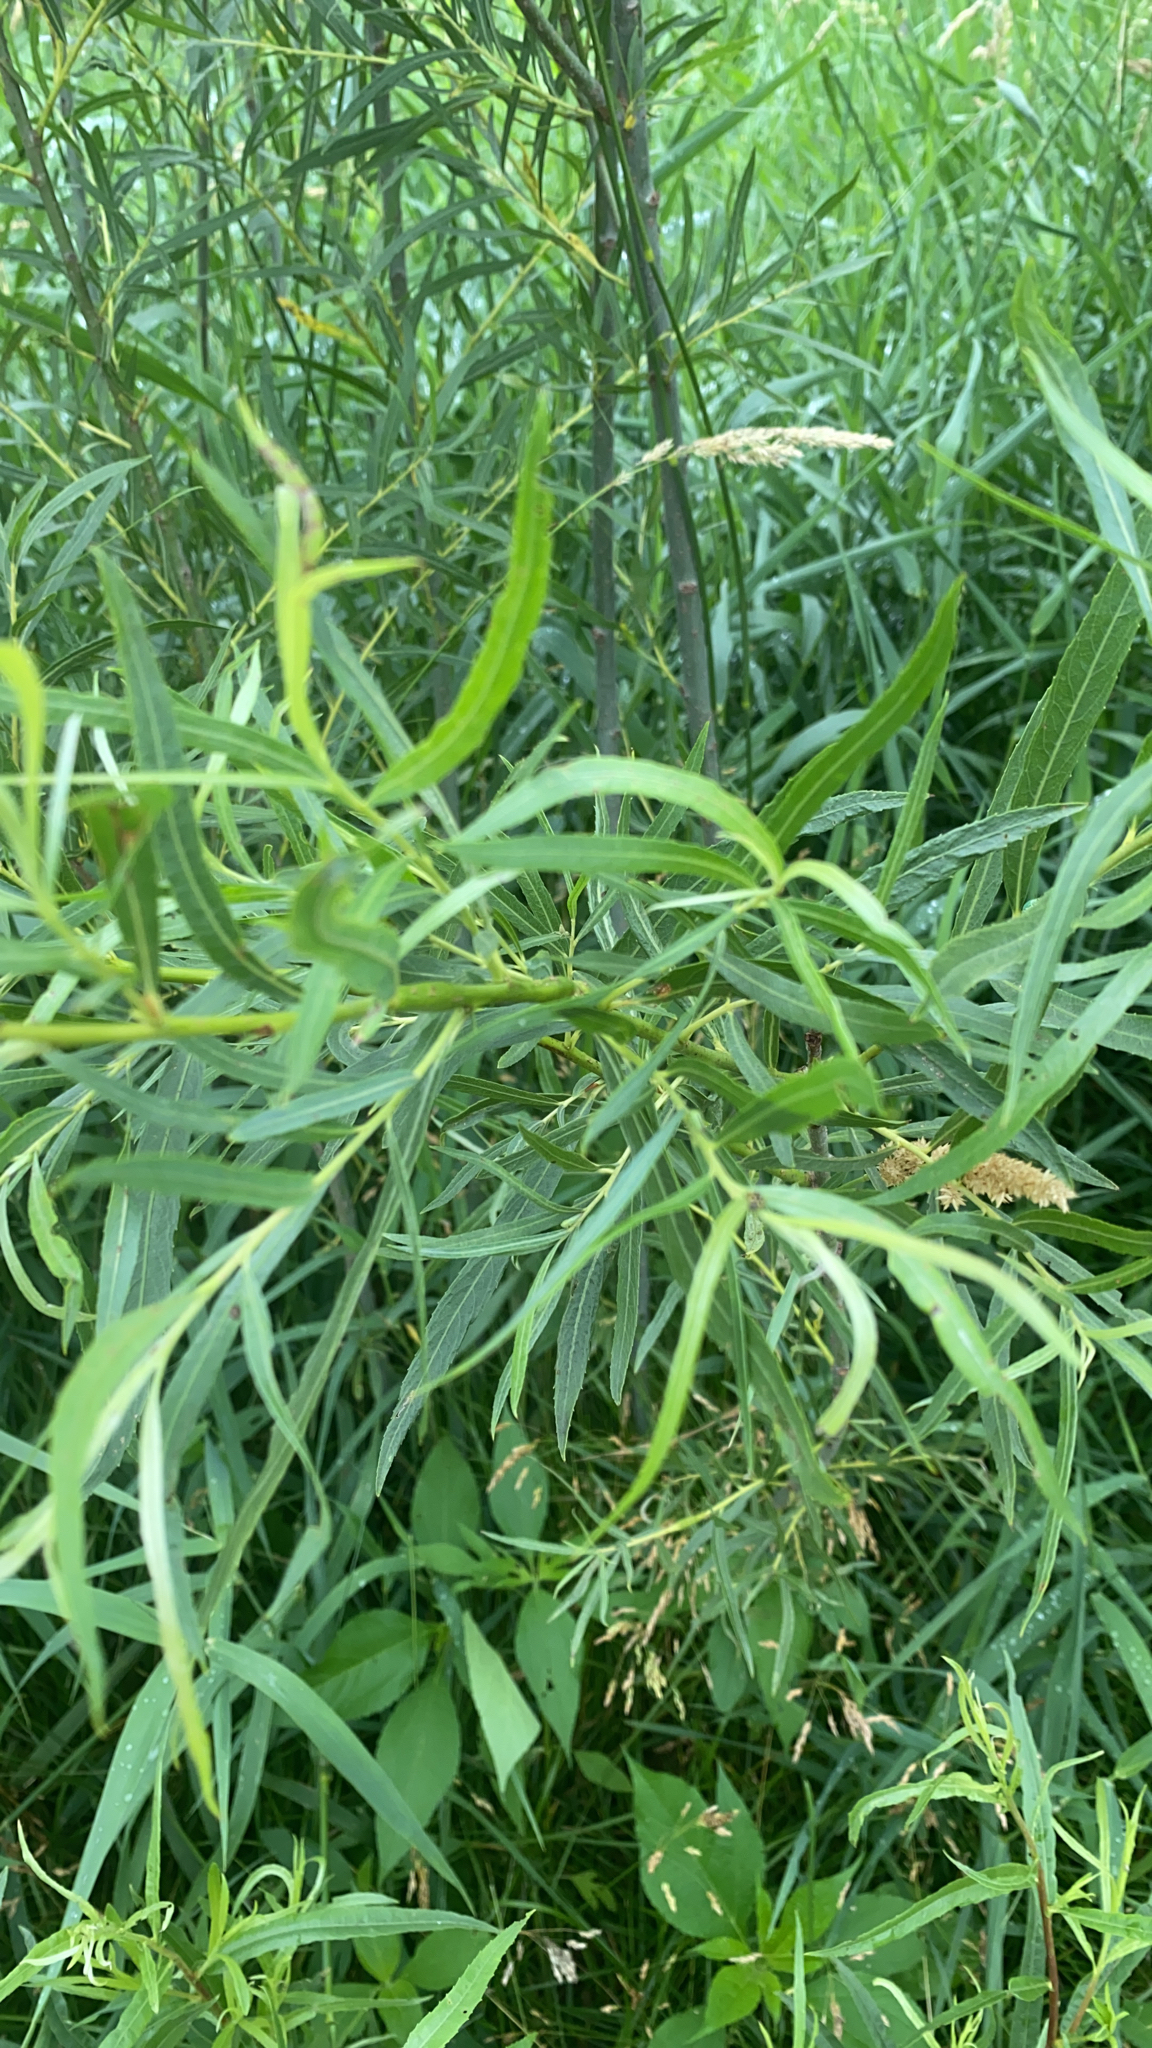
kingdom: Plantae
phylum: Tracheophyta
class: Magnoliopsida
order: Malpighiales
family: Salicaceae
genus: Salix
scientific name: Salix interior
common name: Sandbar willow
